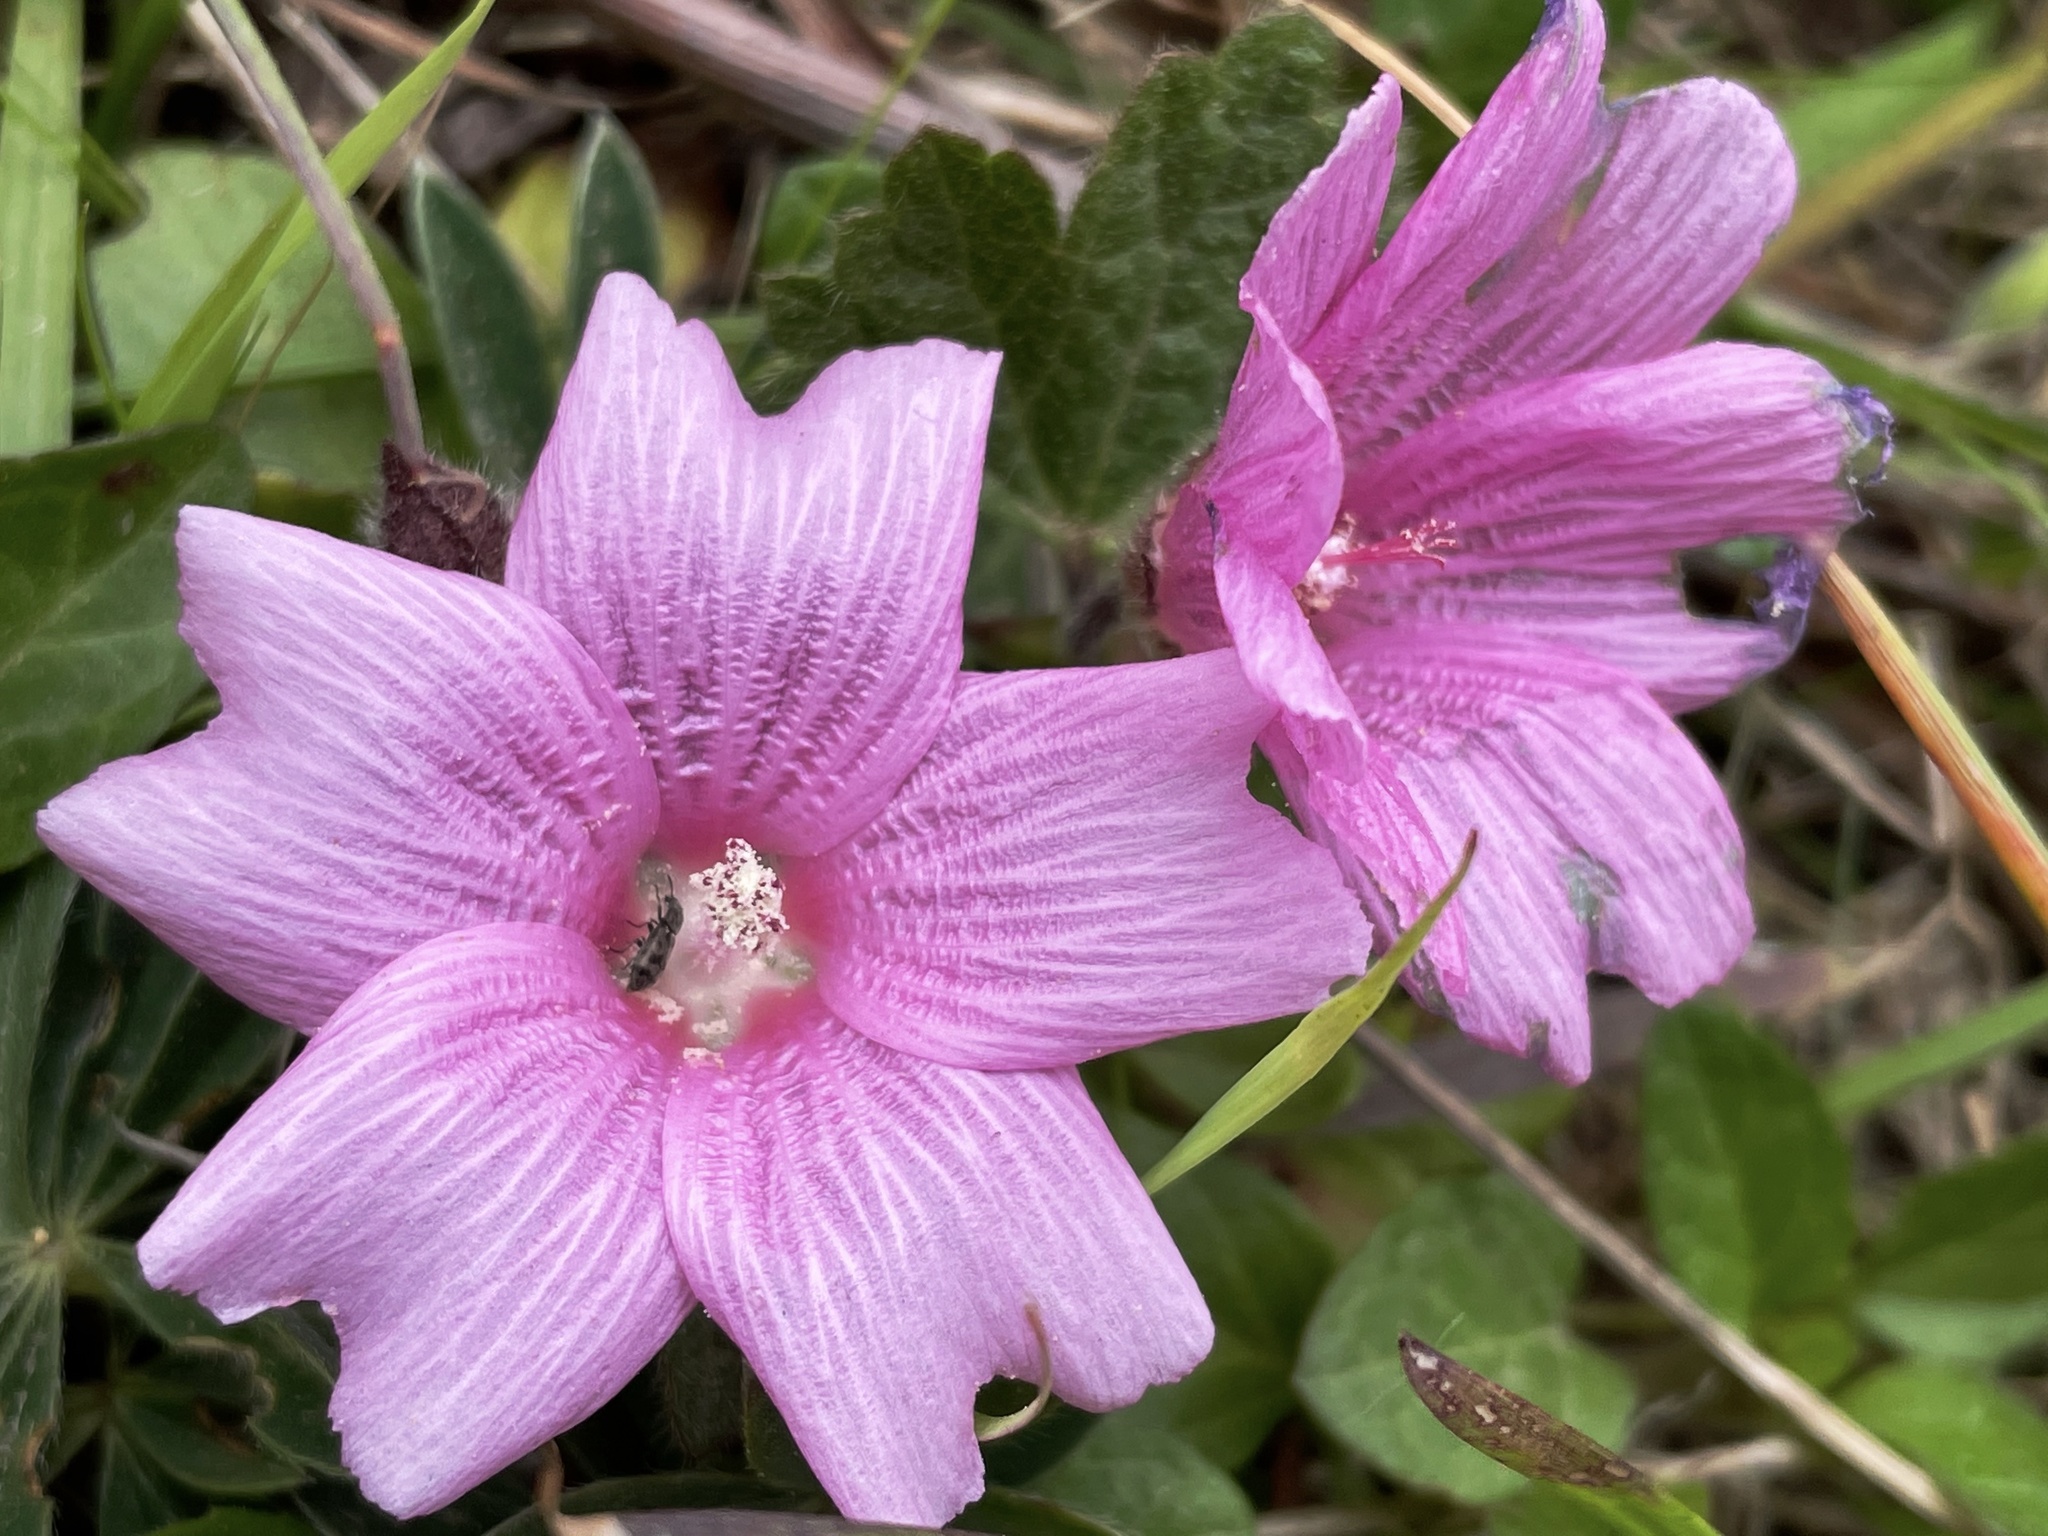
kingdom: Plantae
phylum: Tracheophyta
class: Magnoliopsida
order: Malvales
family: Malvaceae
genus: Sidalcea
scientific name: Sidalcea malviflora
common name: Greek mallow
